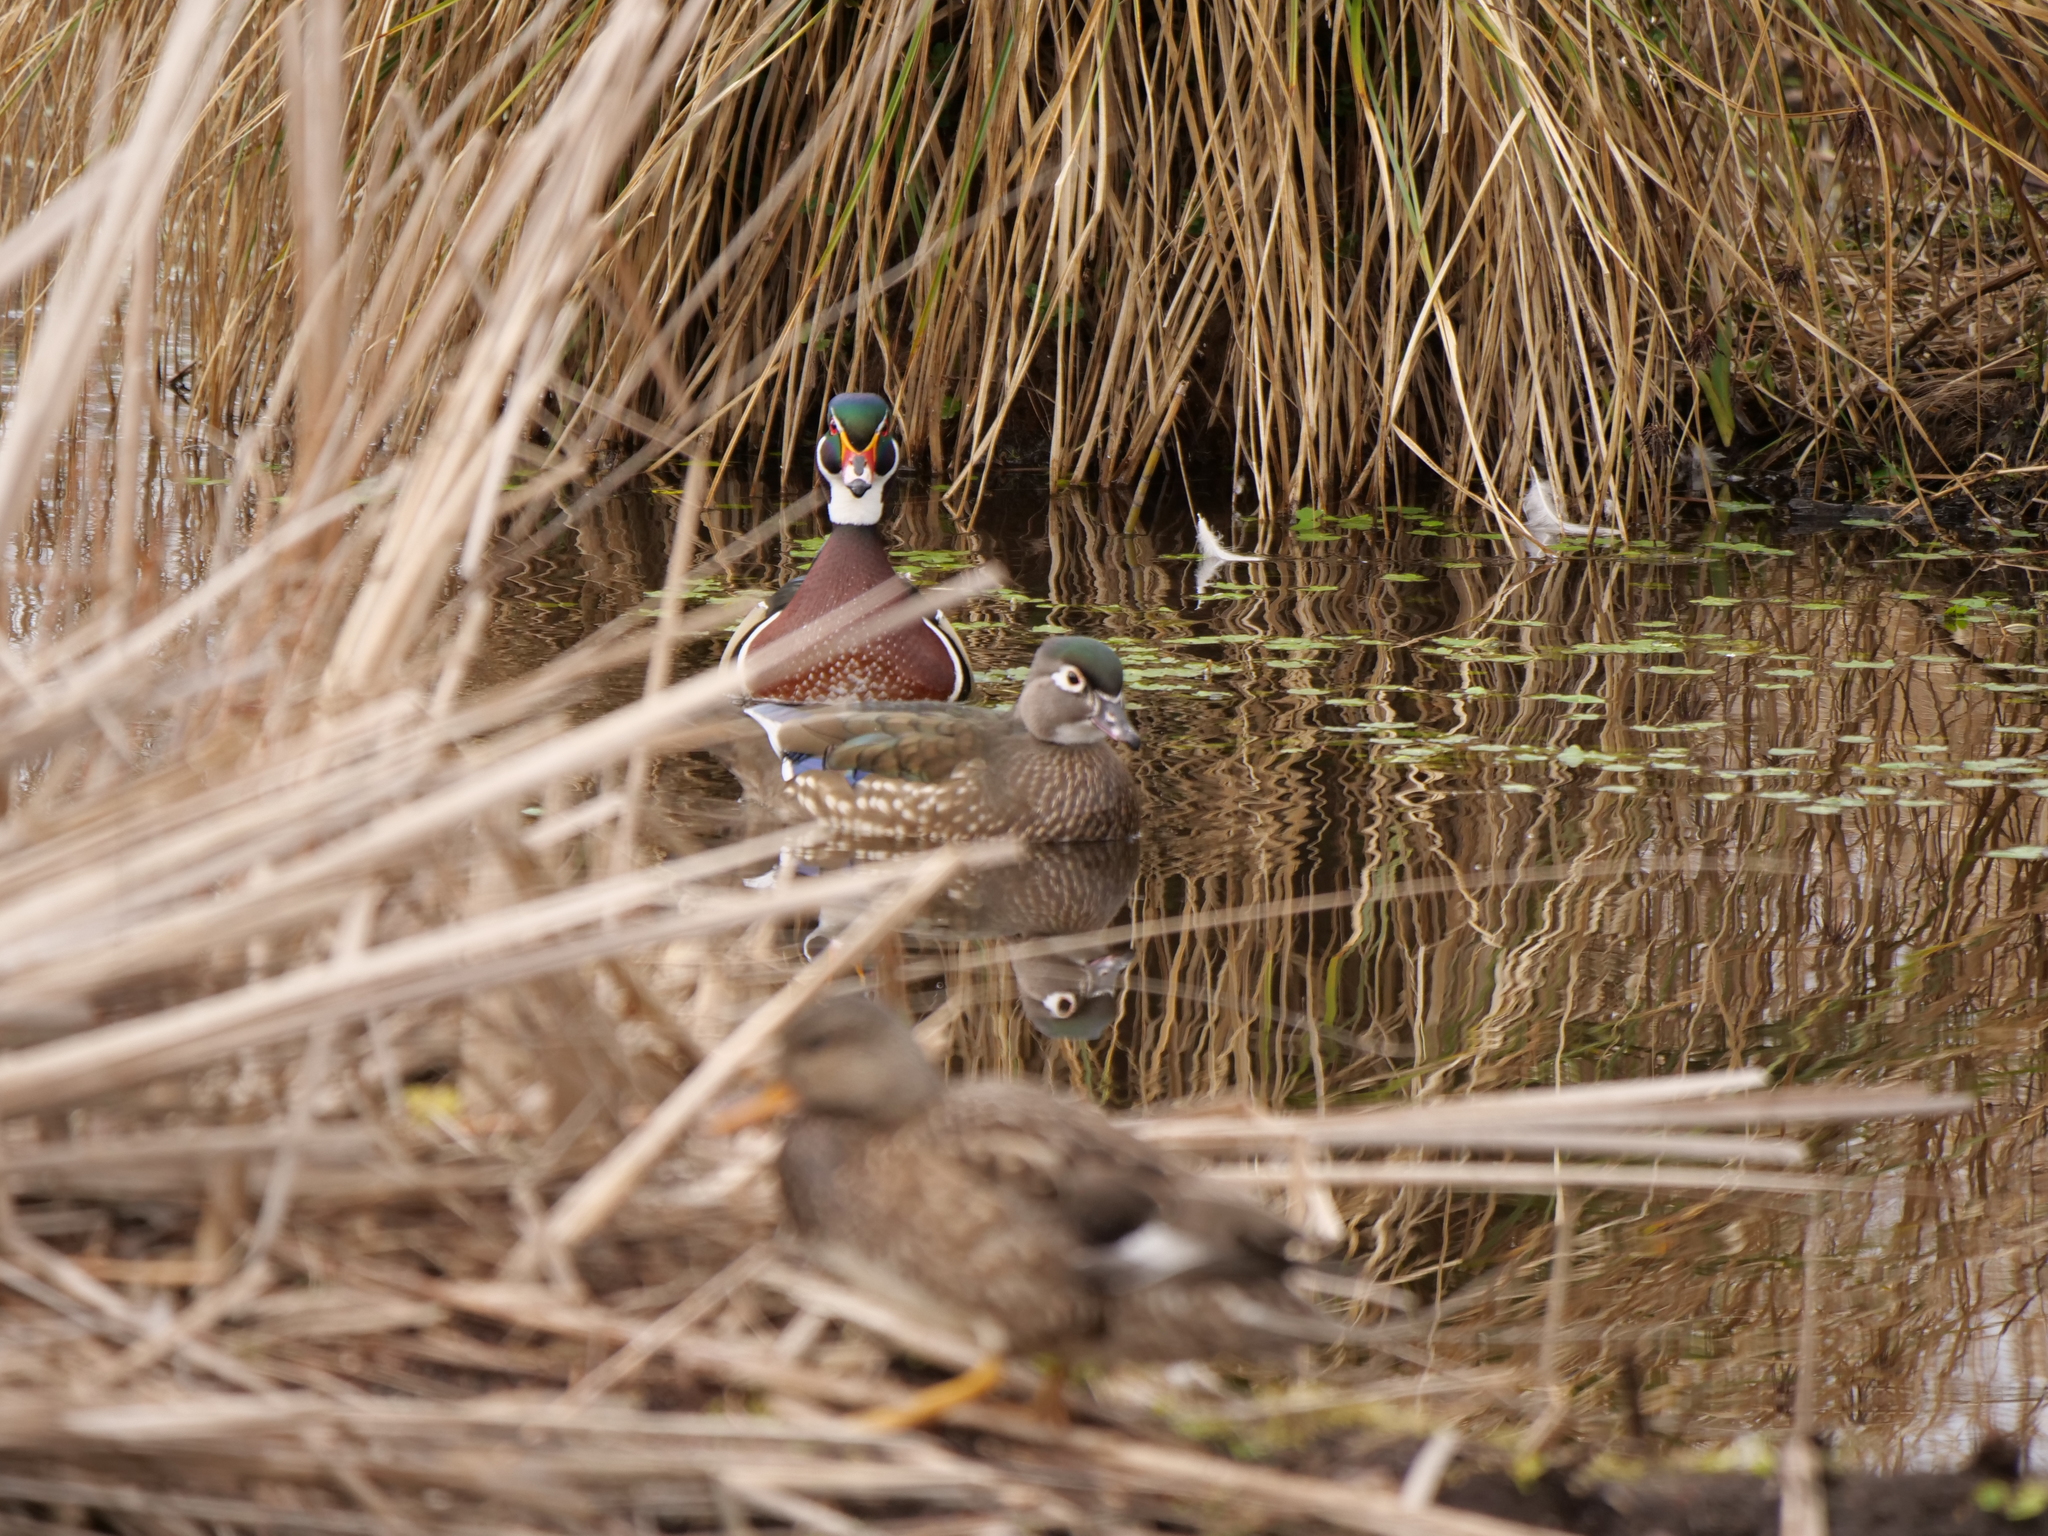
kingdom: Animalia
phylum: Chordata
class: Aves
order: Anseriformes
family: Anatidae
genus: Aix
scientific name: Aix sponsa
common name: Wood duck
